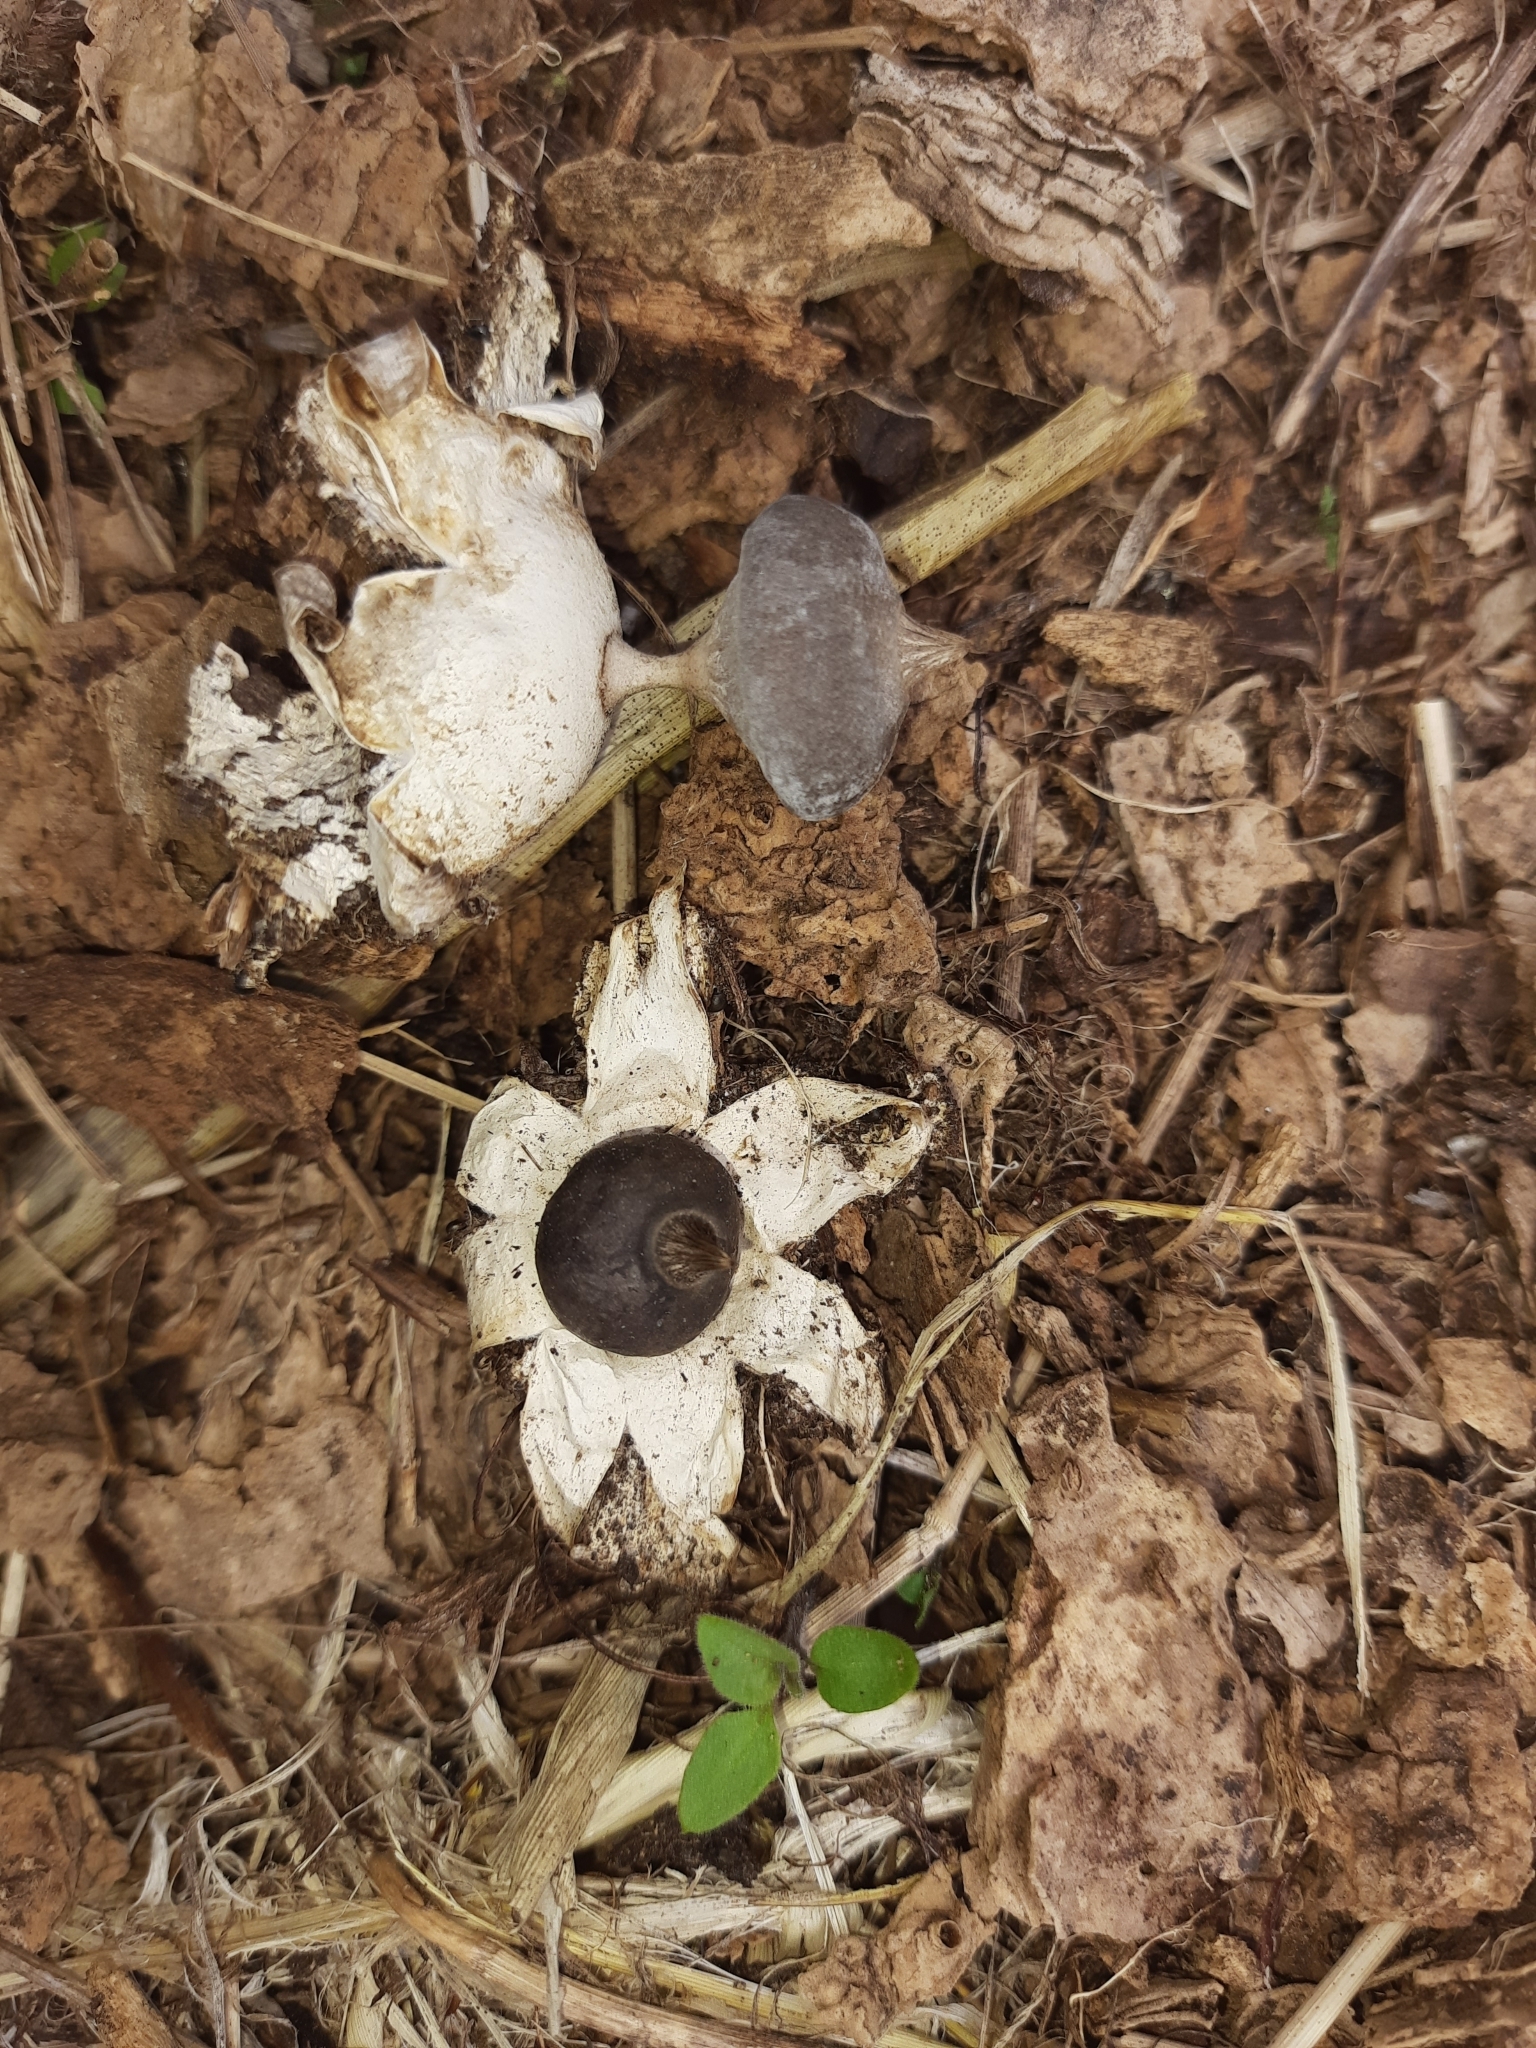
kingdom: Fungi
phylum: Basidiomycota
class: Agaricomycetes
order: Geastrales
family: Geastraceae
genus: Geastrum
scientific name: Geastrum pectinatum
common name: Beaked earthstar
